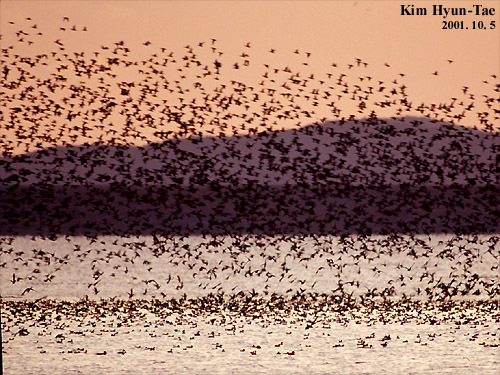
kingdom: Animalia
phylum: Chordata
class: Aves
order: Anseriformes
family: Anatidae
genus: Sibirionetta
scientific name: Sibirionetta formosa
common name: Baikal teal
